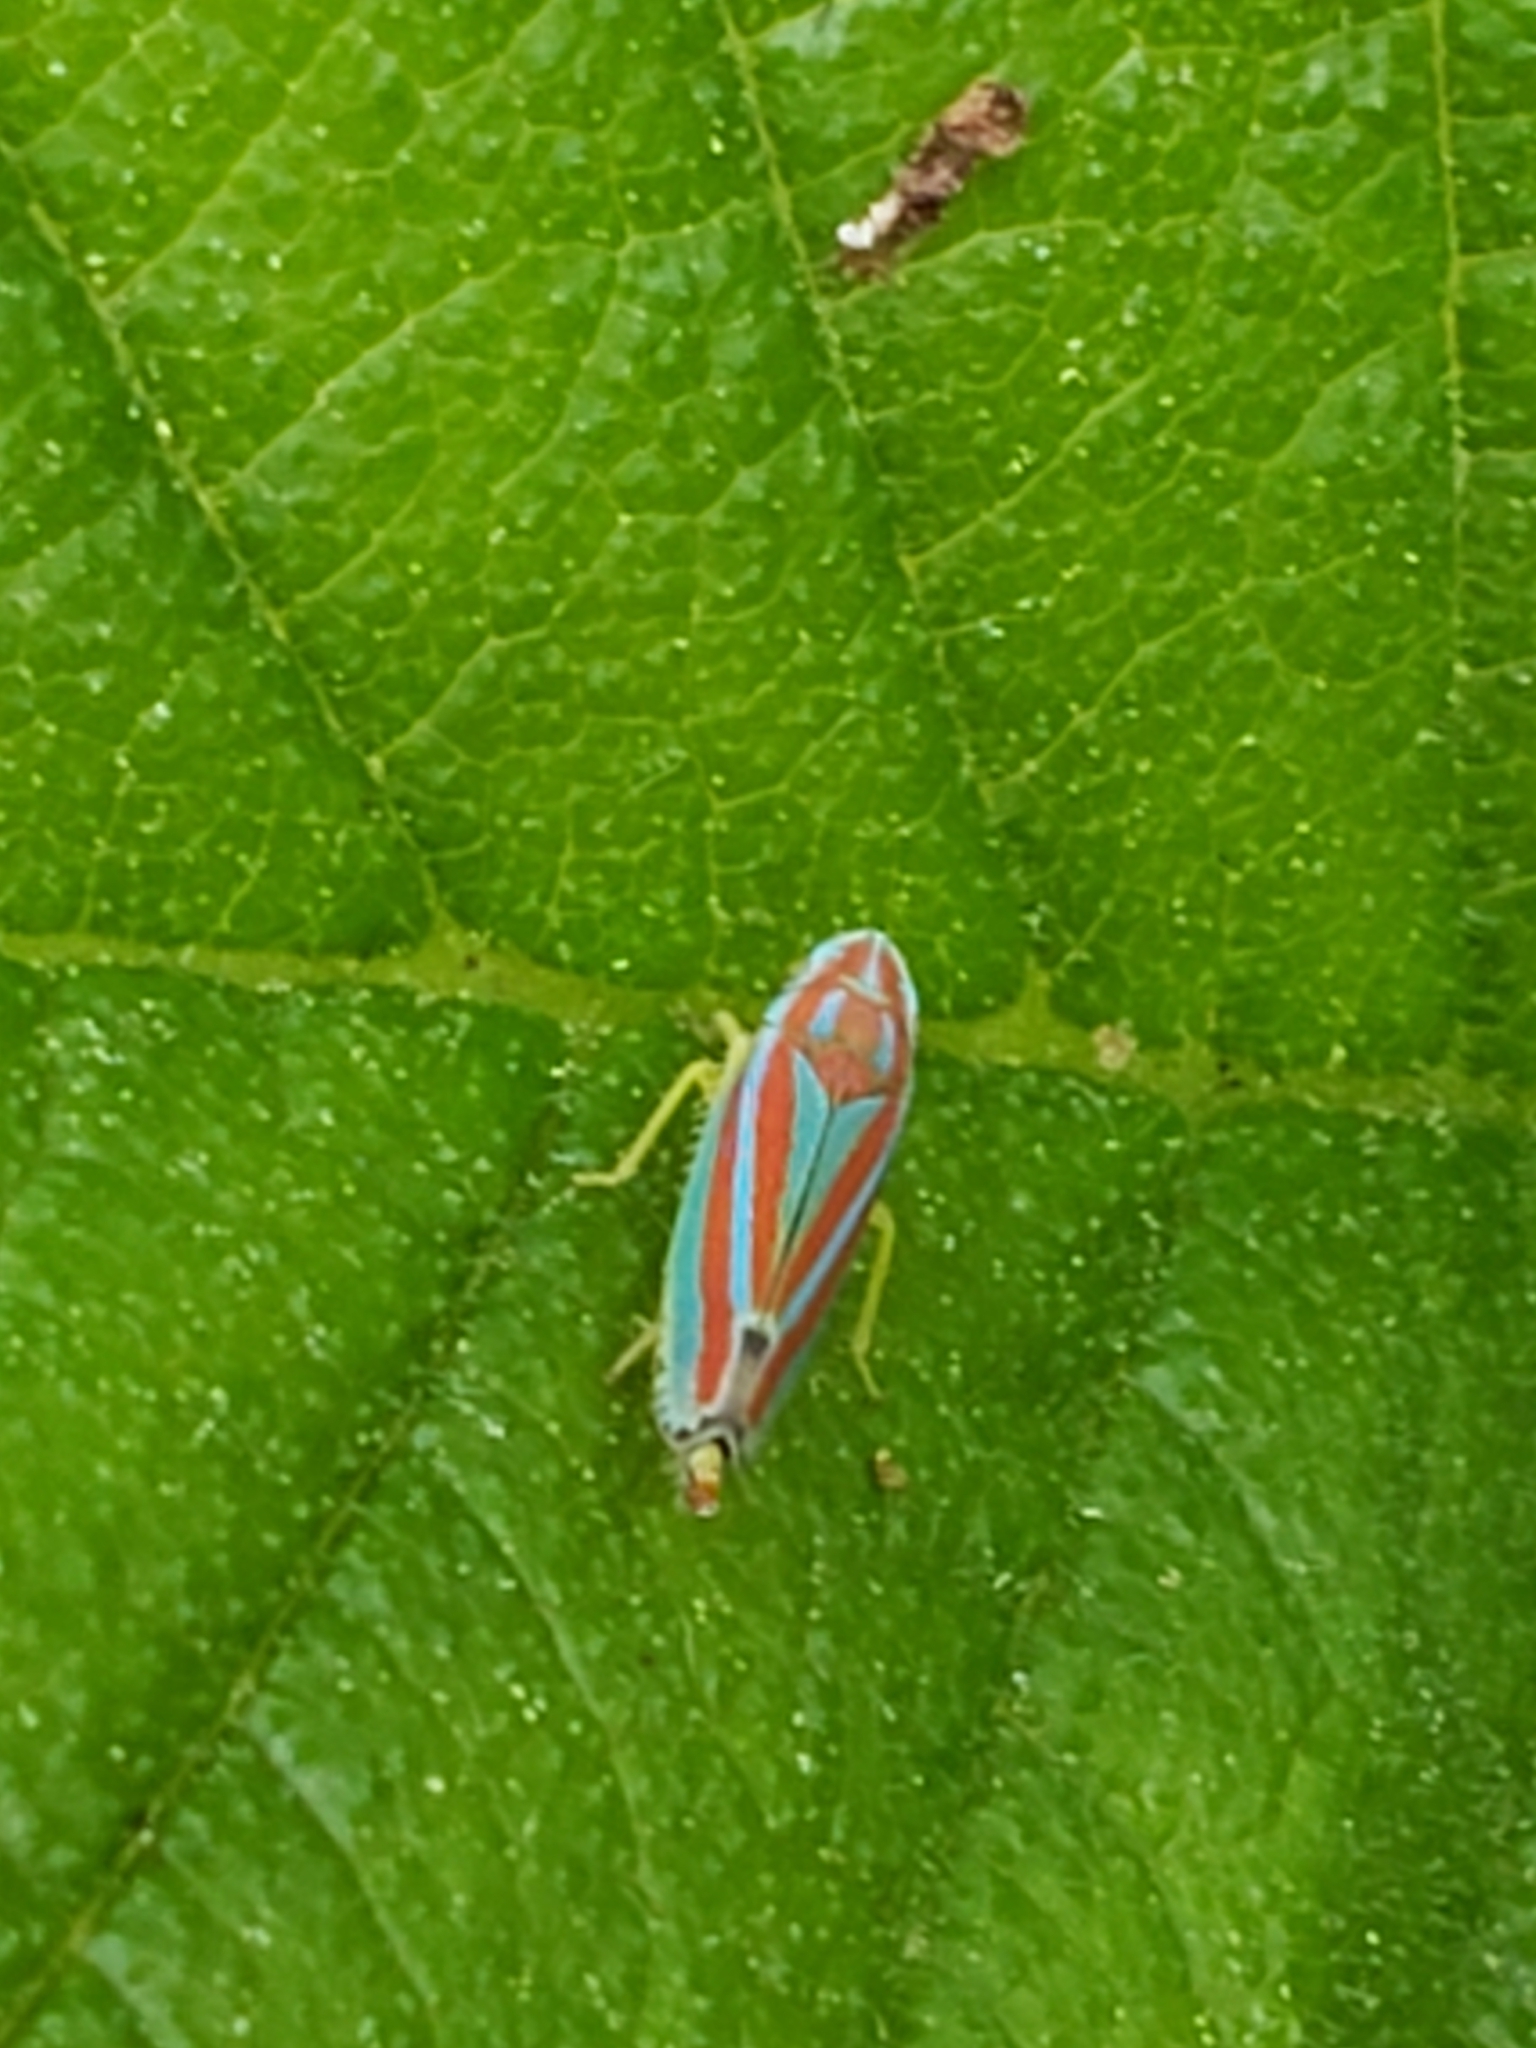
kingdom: Animalia
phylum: Arthropoda
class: Insecta
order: Hemiptera
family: Cicadellidae
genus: Graphocephala
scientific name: Graphocephala versuta
